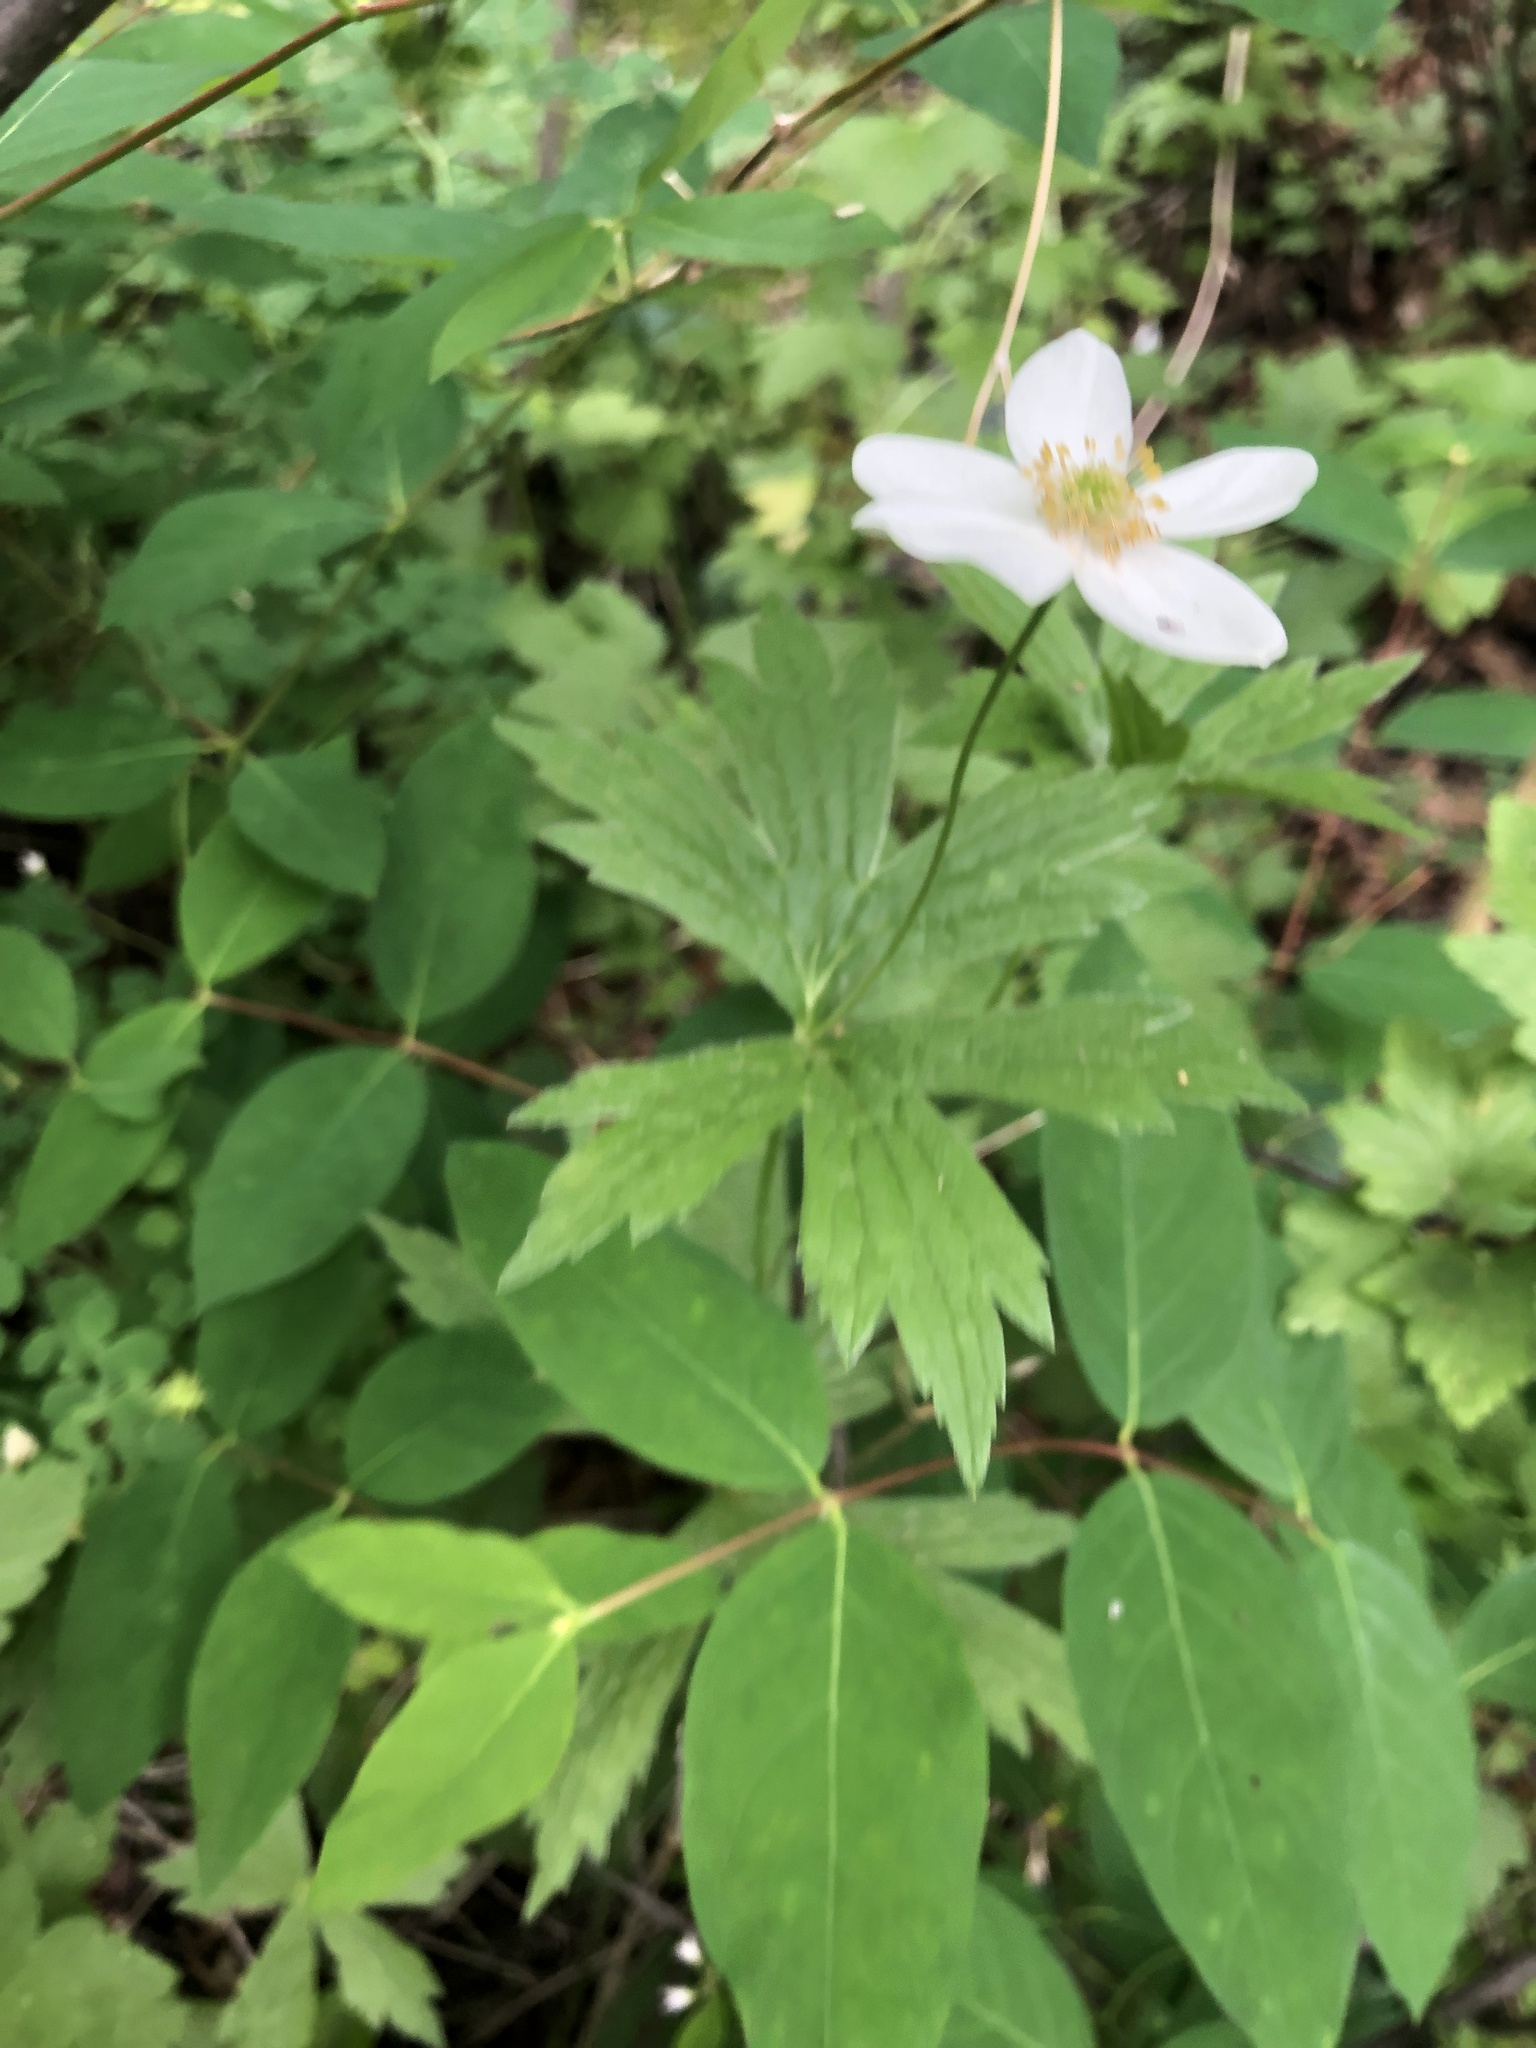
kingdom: Plantae
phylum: Tracheophyta
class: Magnoliopsida
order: Ranunculales
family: Ranunculaceae
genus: Anemonastrum
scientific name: Anemonastrum canadense
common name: Canada anemone
